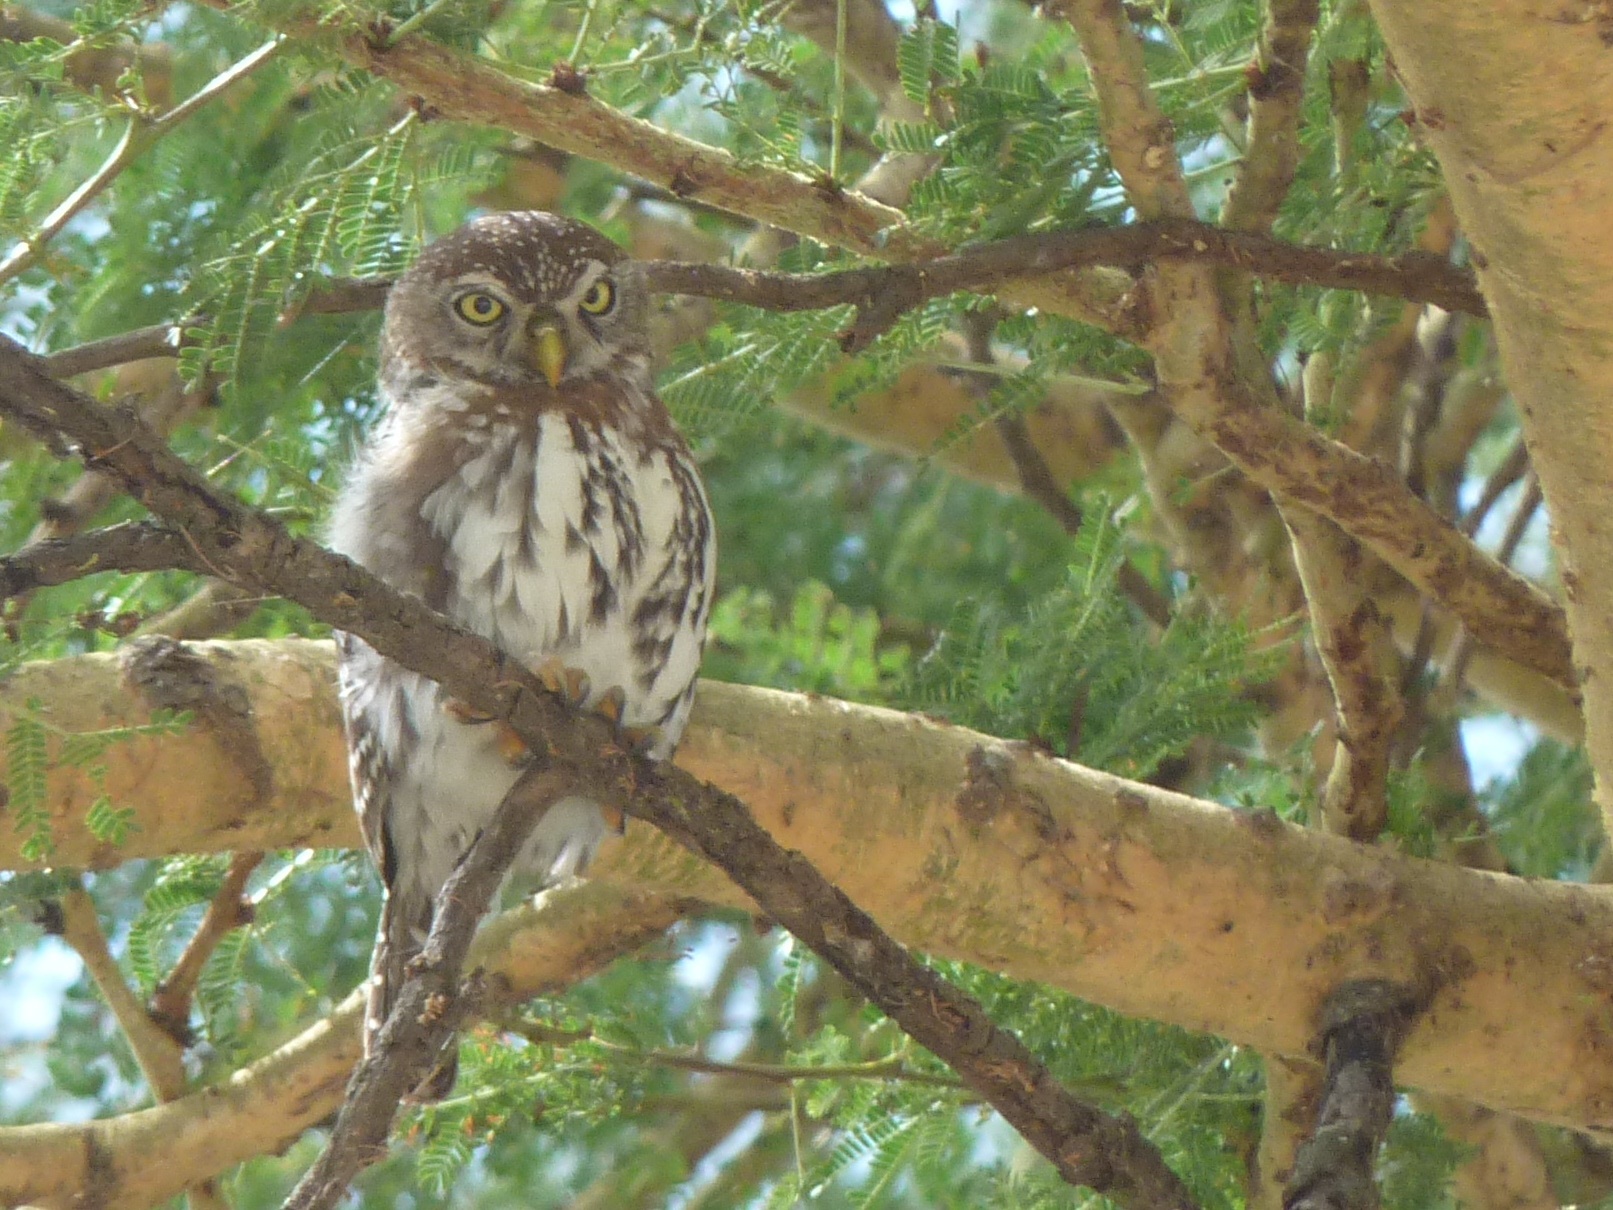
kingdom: Animalia
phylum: Chordata
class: Aves
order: Strigiformes
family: Strigidae
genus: Glaucidium
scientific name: Glaucidium perlatum
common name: Pearl-spotted owlet
